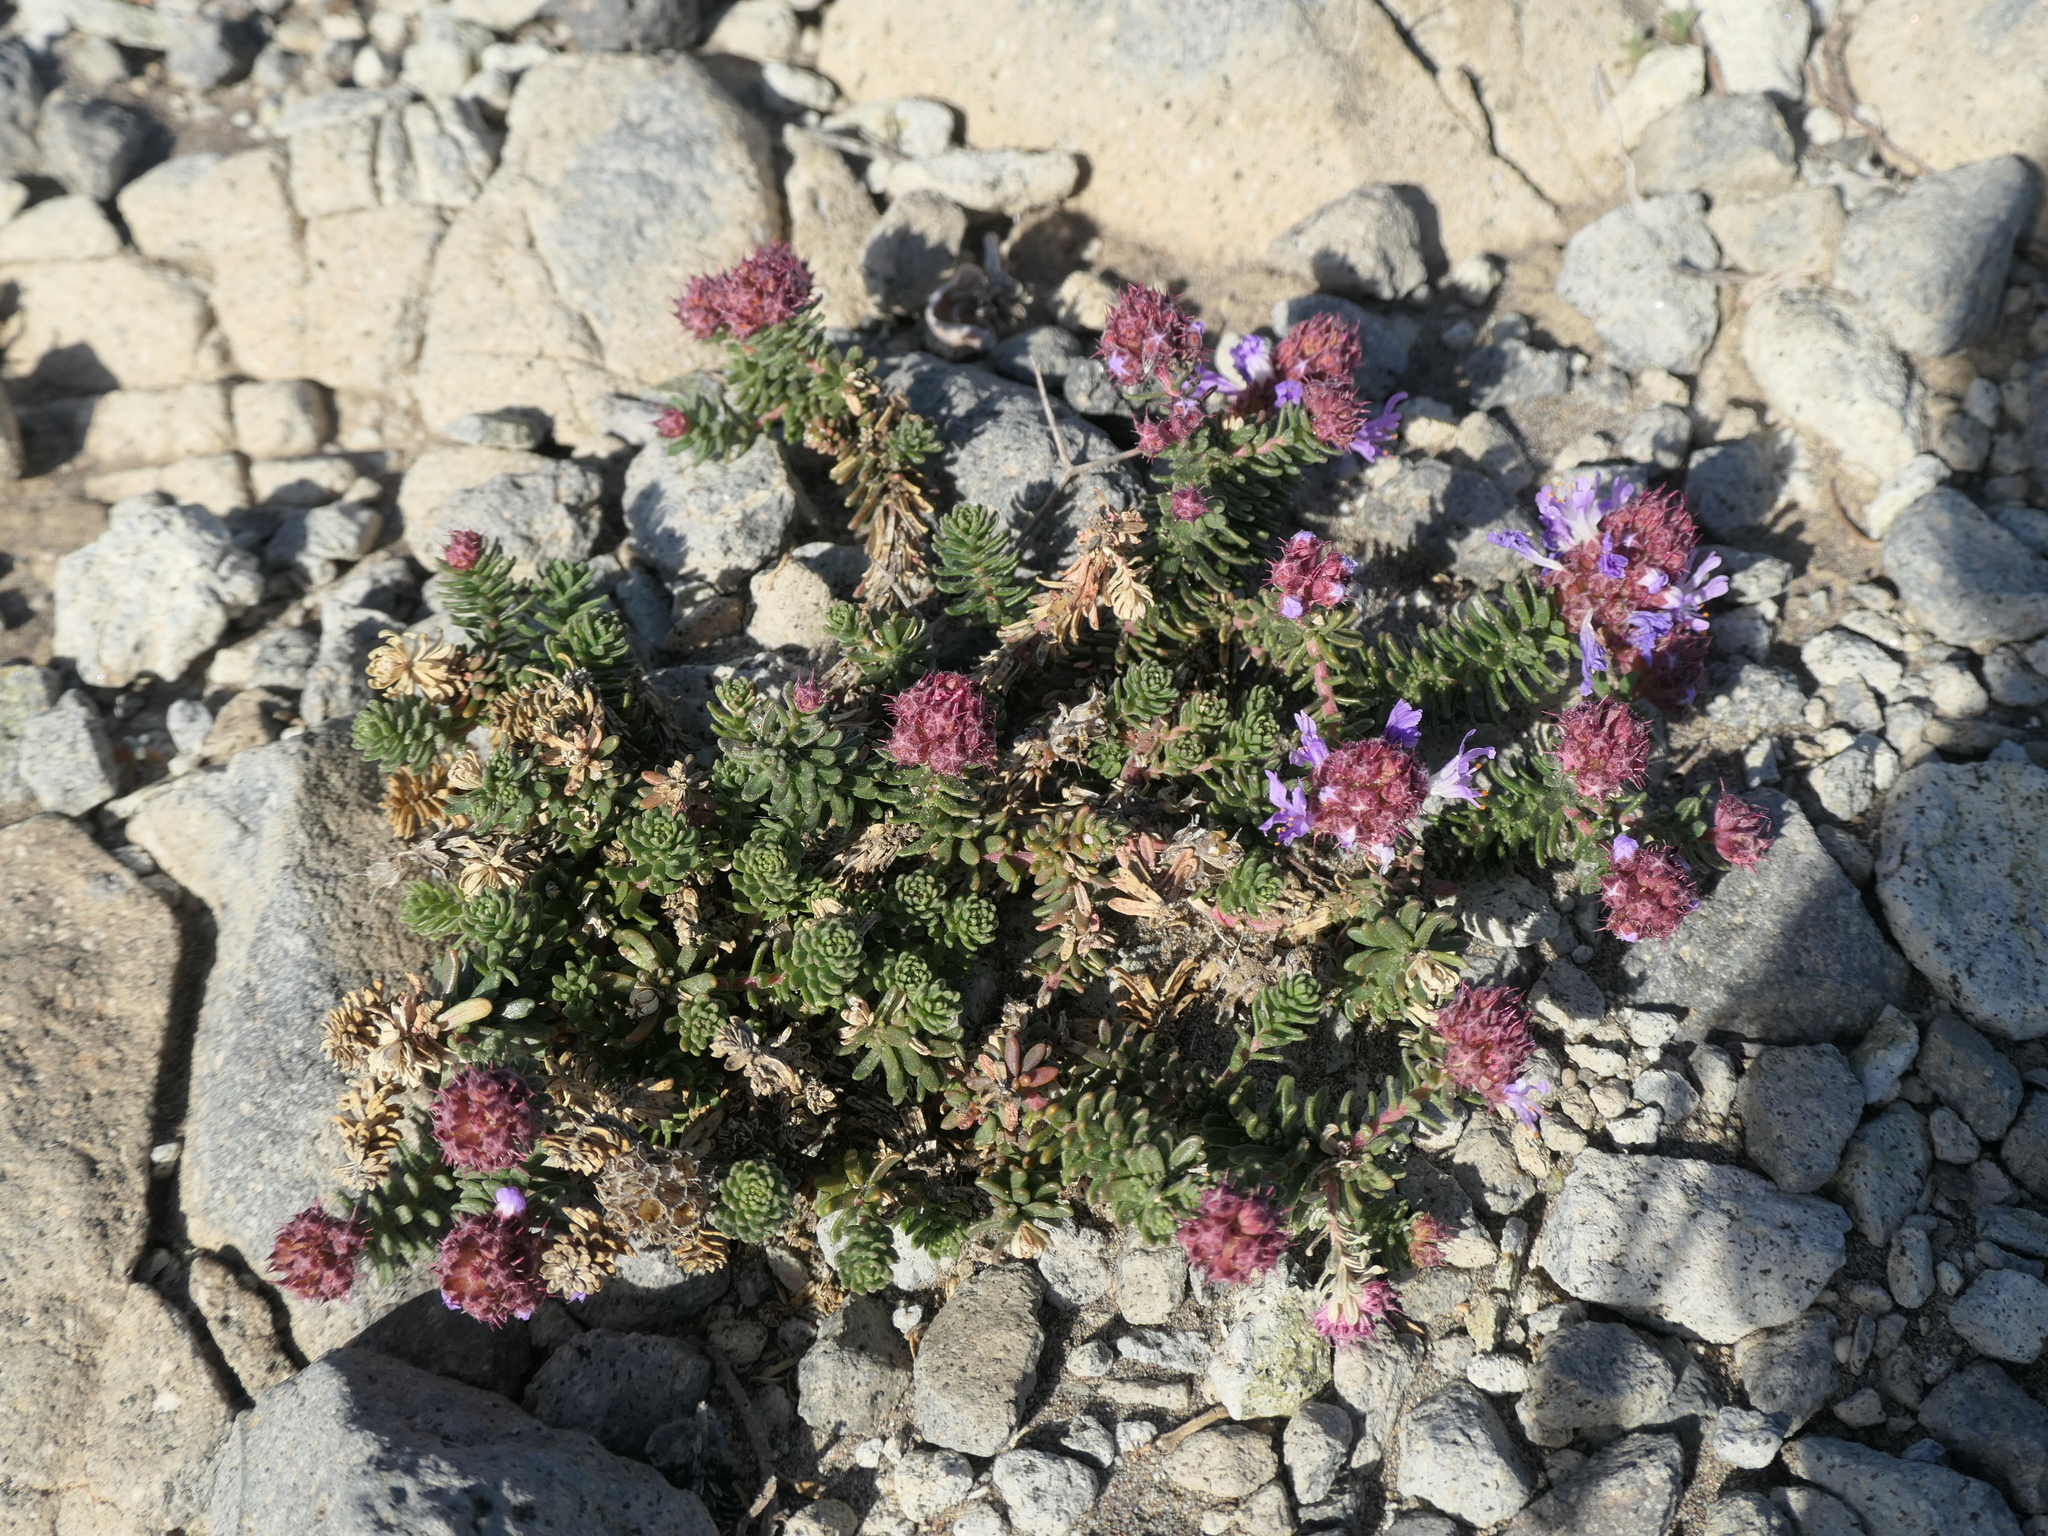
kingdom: Plantae
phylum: Tracheophyta
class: Magnoliopsida
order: Ericales
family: Primulaceae
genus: Coris
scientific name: Coris monspeliensis
